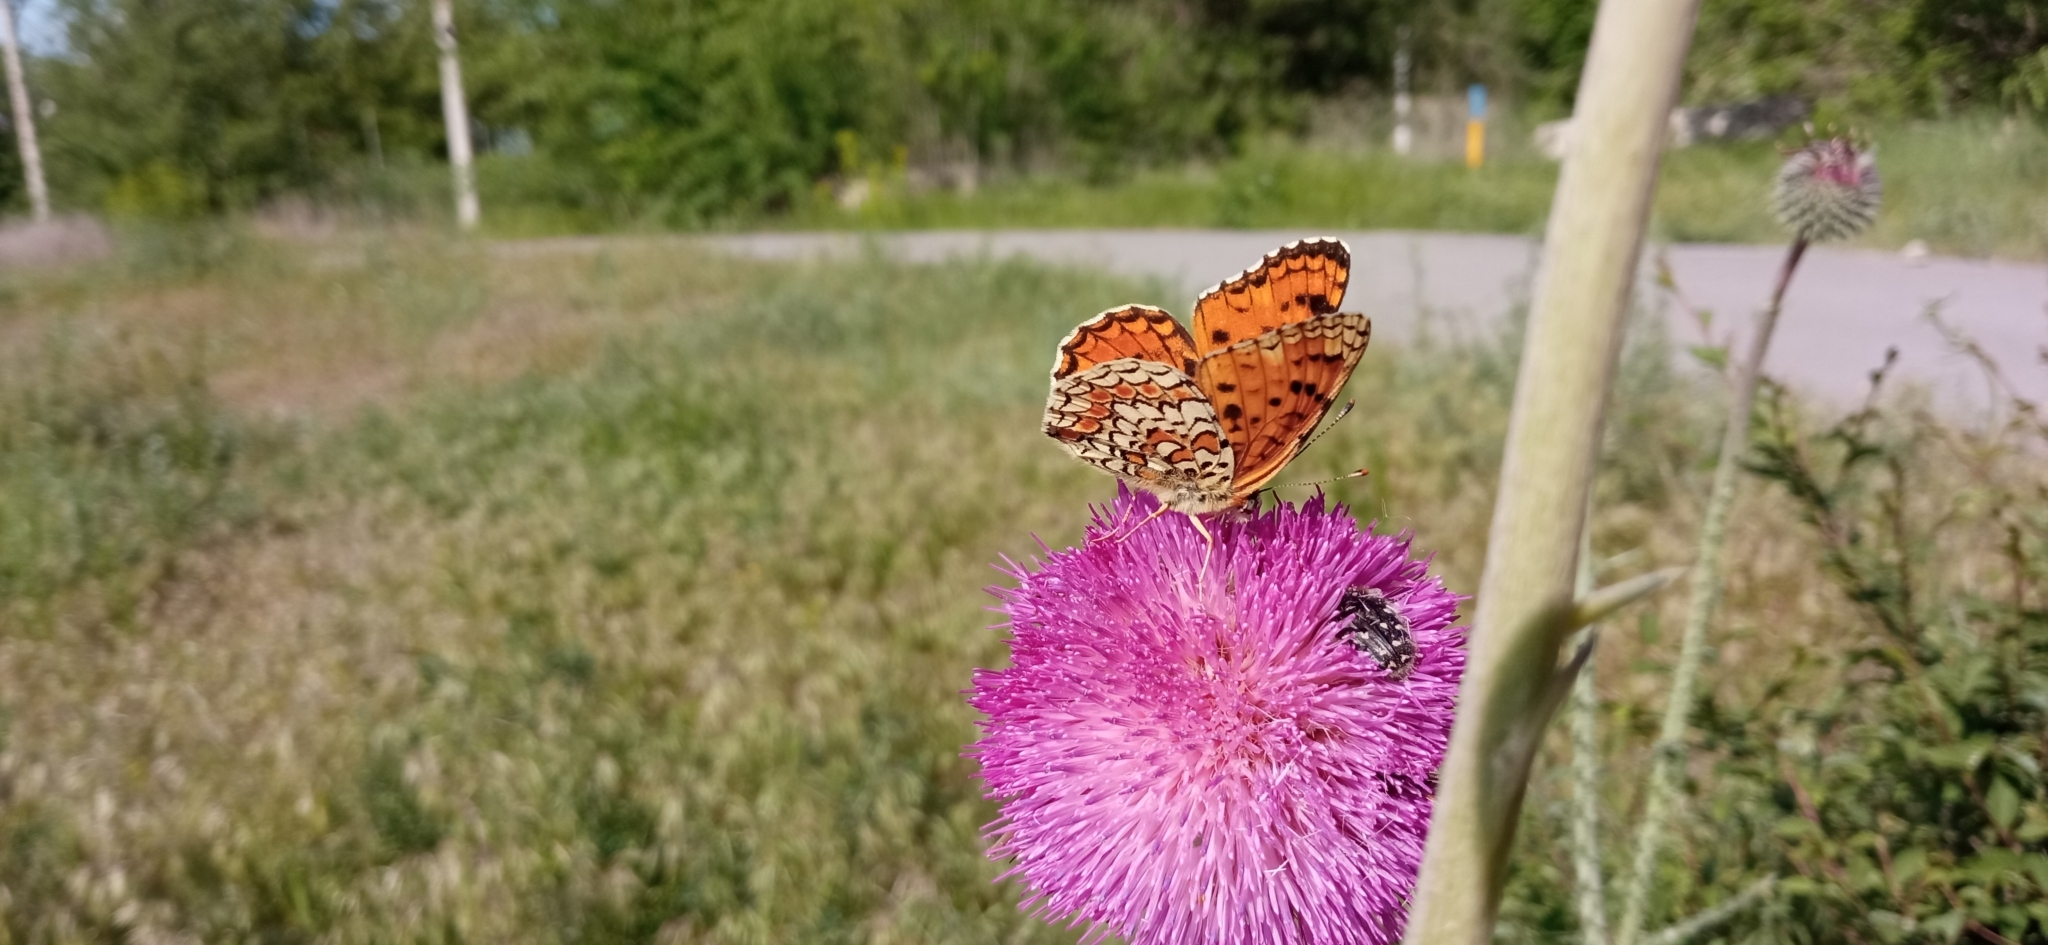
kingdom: Animalia
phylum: Arthropoda
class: Insecta
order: Lepidoptera
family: Nymphalidae
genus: Melitaea
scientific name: Melitaea phoebe
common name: Knapweed fritillary
